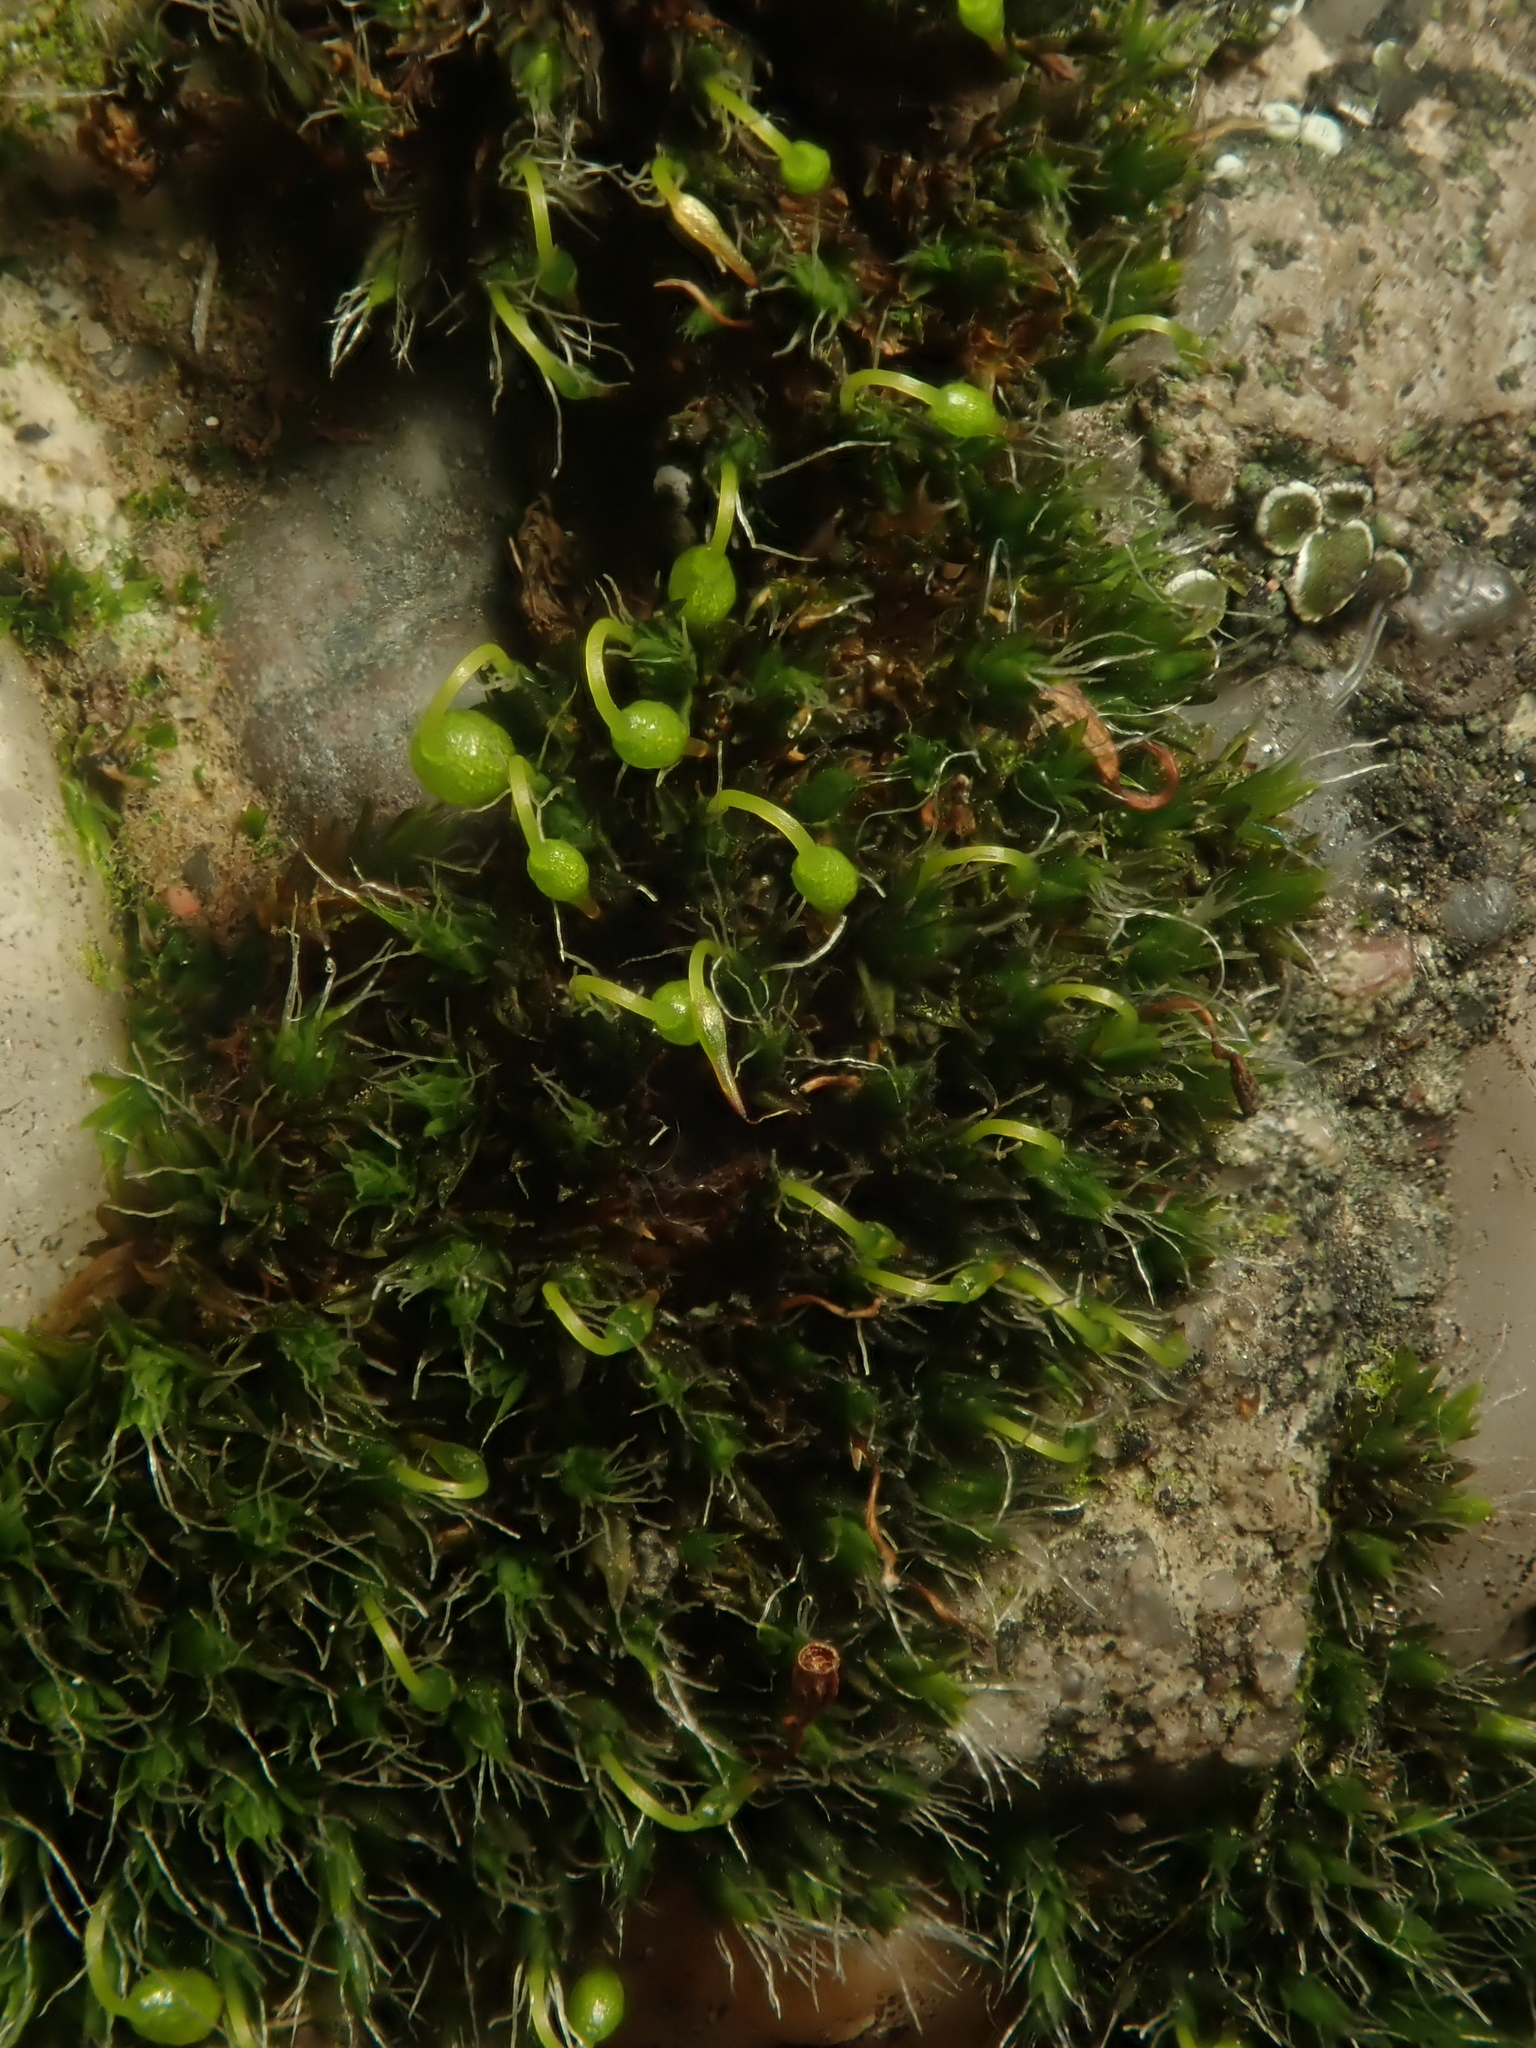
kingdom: Plantae
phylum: Bryophyta
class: Bryopsida
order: Grimmiales
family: Grimmiaceae
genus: Grimmia
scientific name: Grimmia pulvinata
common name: Grey-cushioned grimmia
